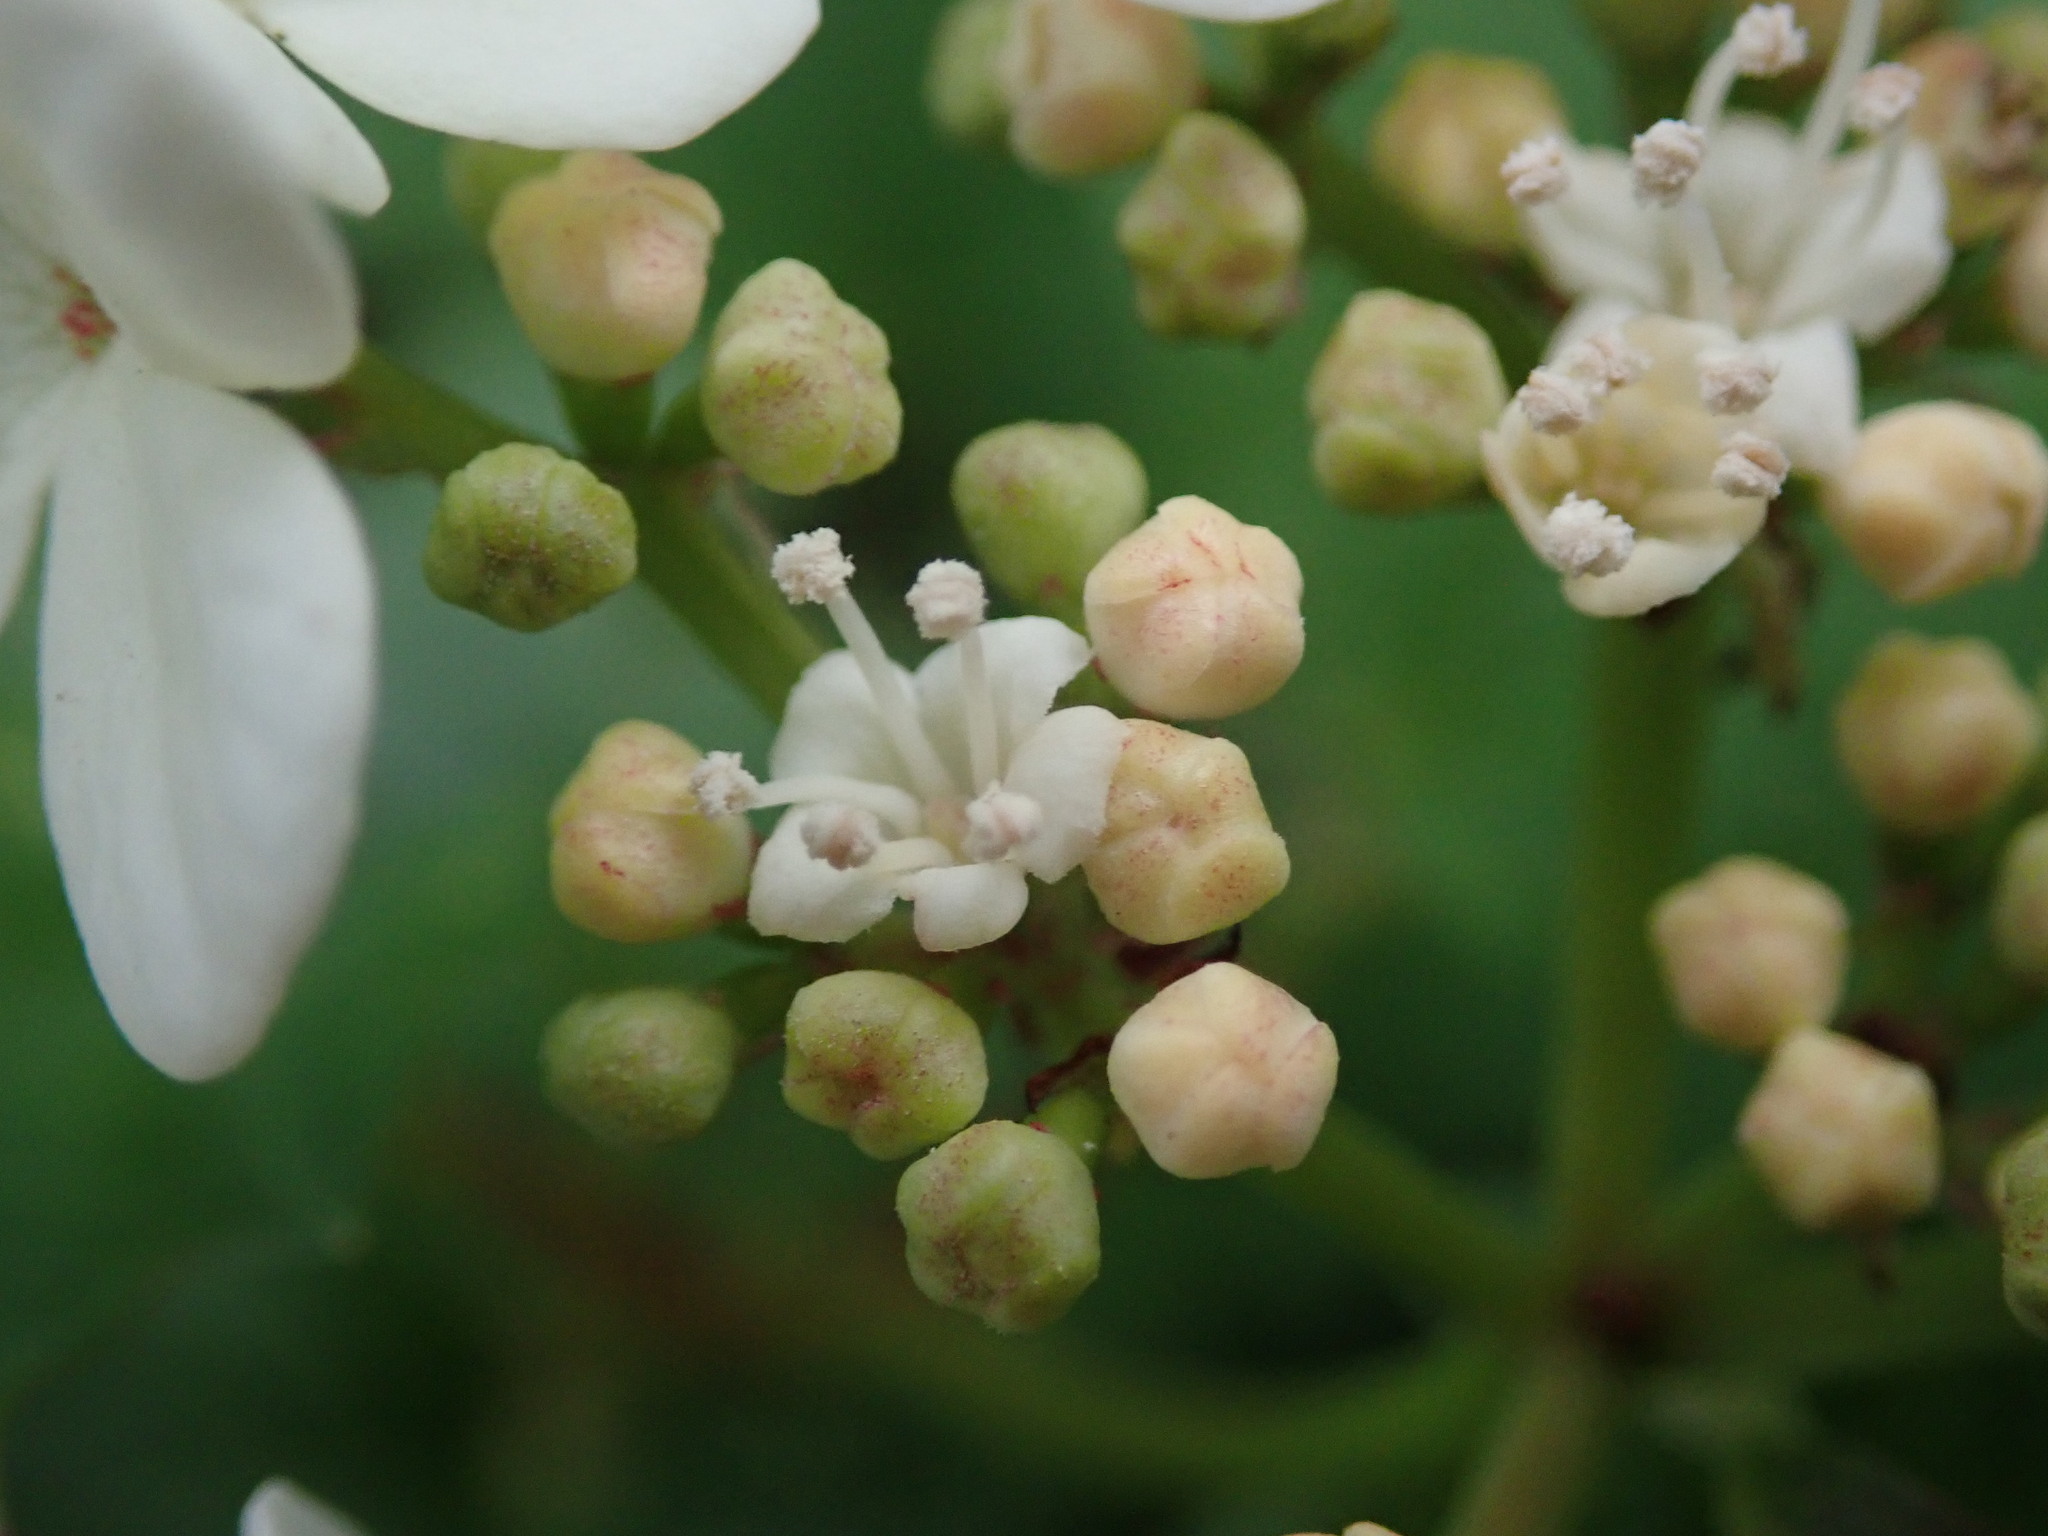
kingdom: Plantae
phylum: Tracheophyta
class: Magnoliopsida
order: Dipsacales
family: Viburnaceae
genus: Viburnum
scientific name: Viburnum opulus
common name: Guelder-rose
